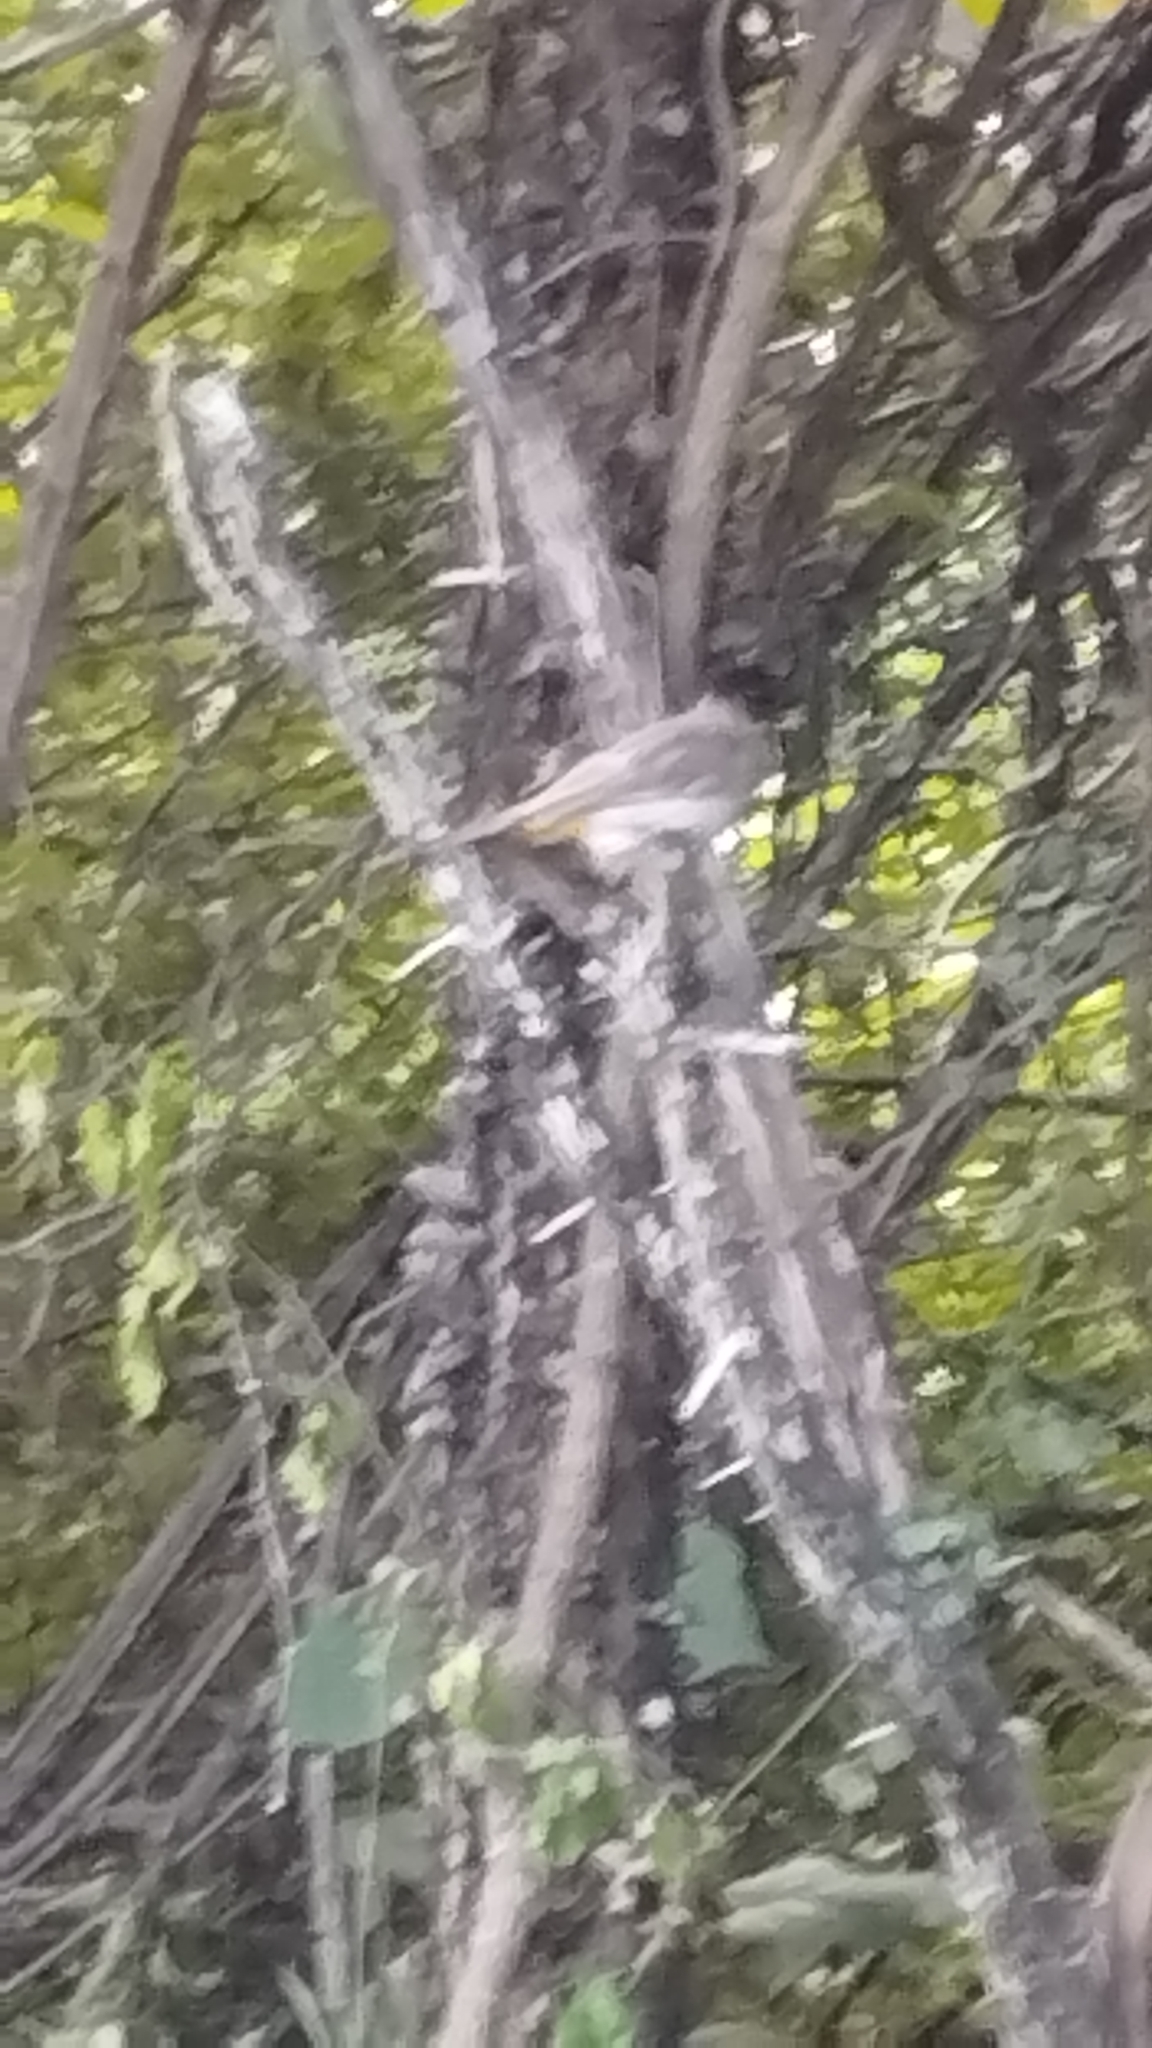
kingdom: Animalia
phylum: Chordata
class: Aves
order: Passeriformes
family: Pycnonotidae
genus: Pycnonotus
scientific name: Pycnonotus barbatus
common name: Common bulbul
